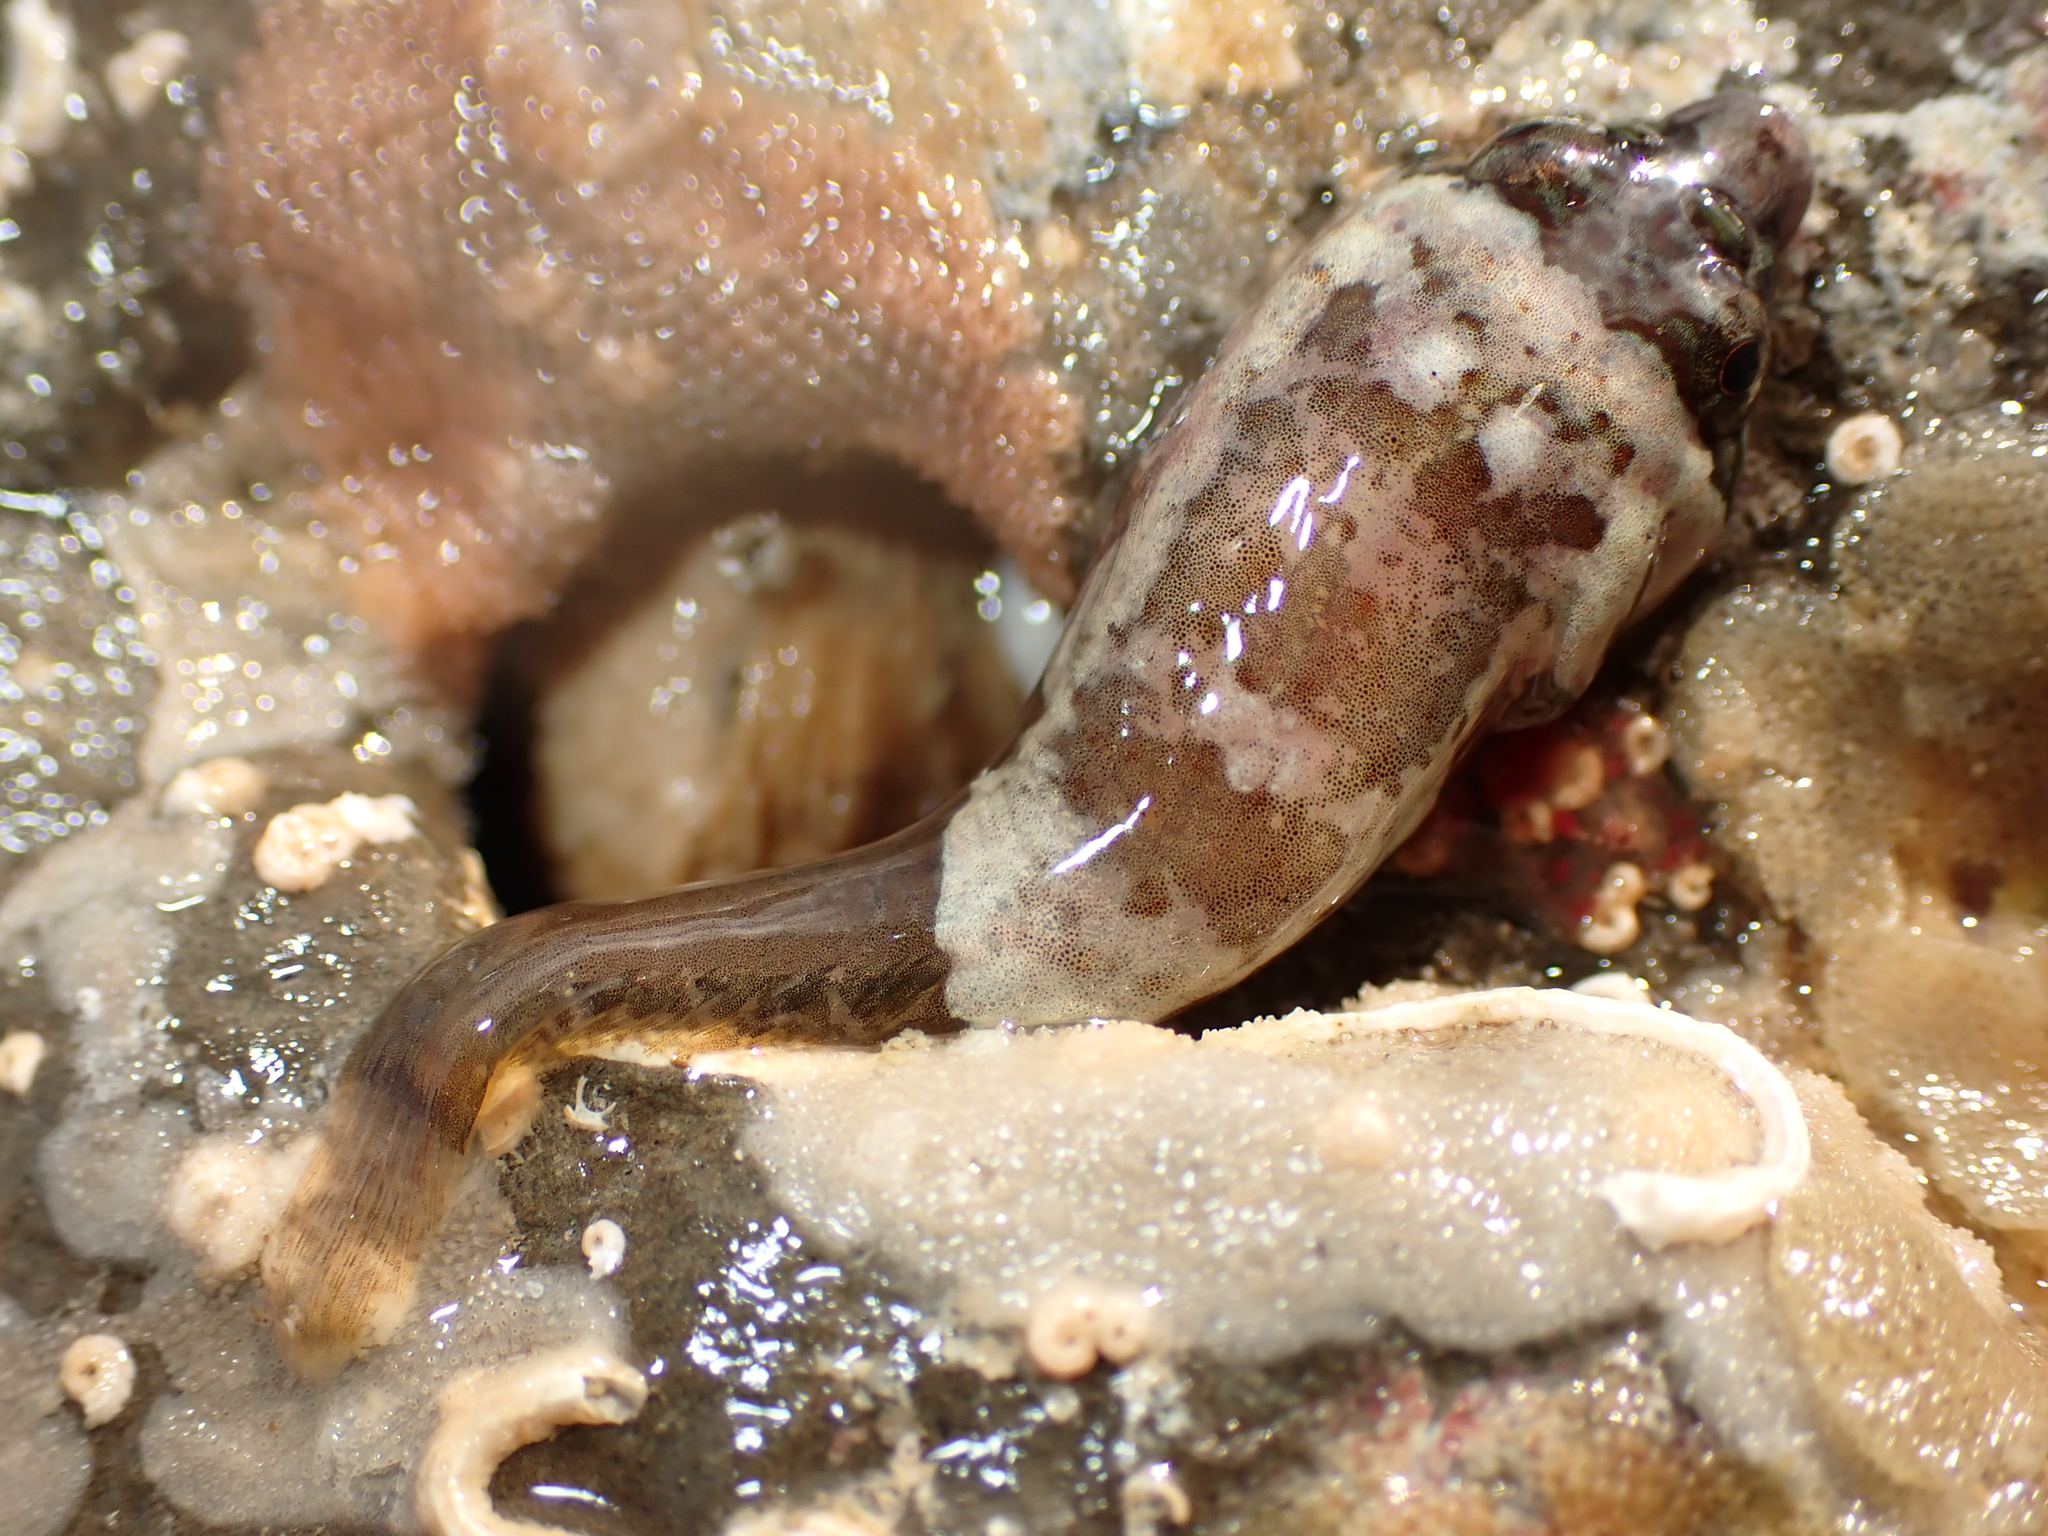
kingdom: Animalia
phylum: Chordata
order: Gobiesociformes
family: Gobiesocidae
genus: Trachelochismus
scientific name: Trachelochismus melobesia
